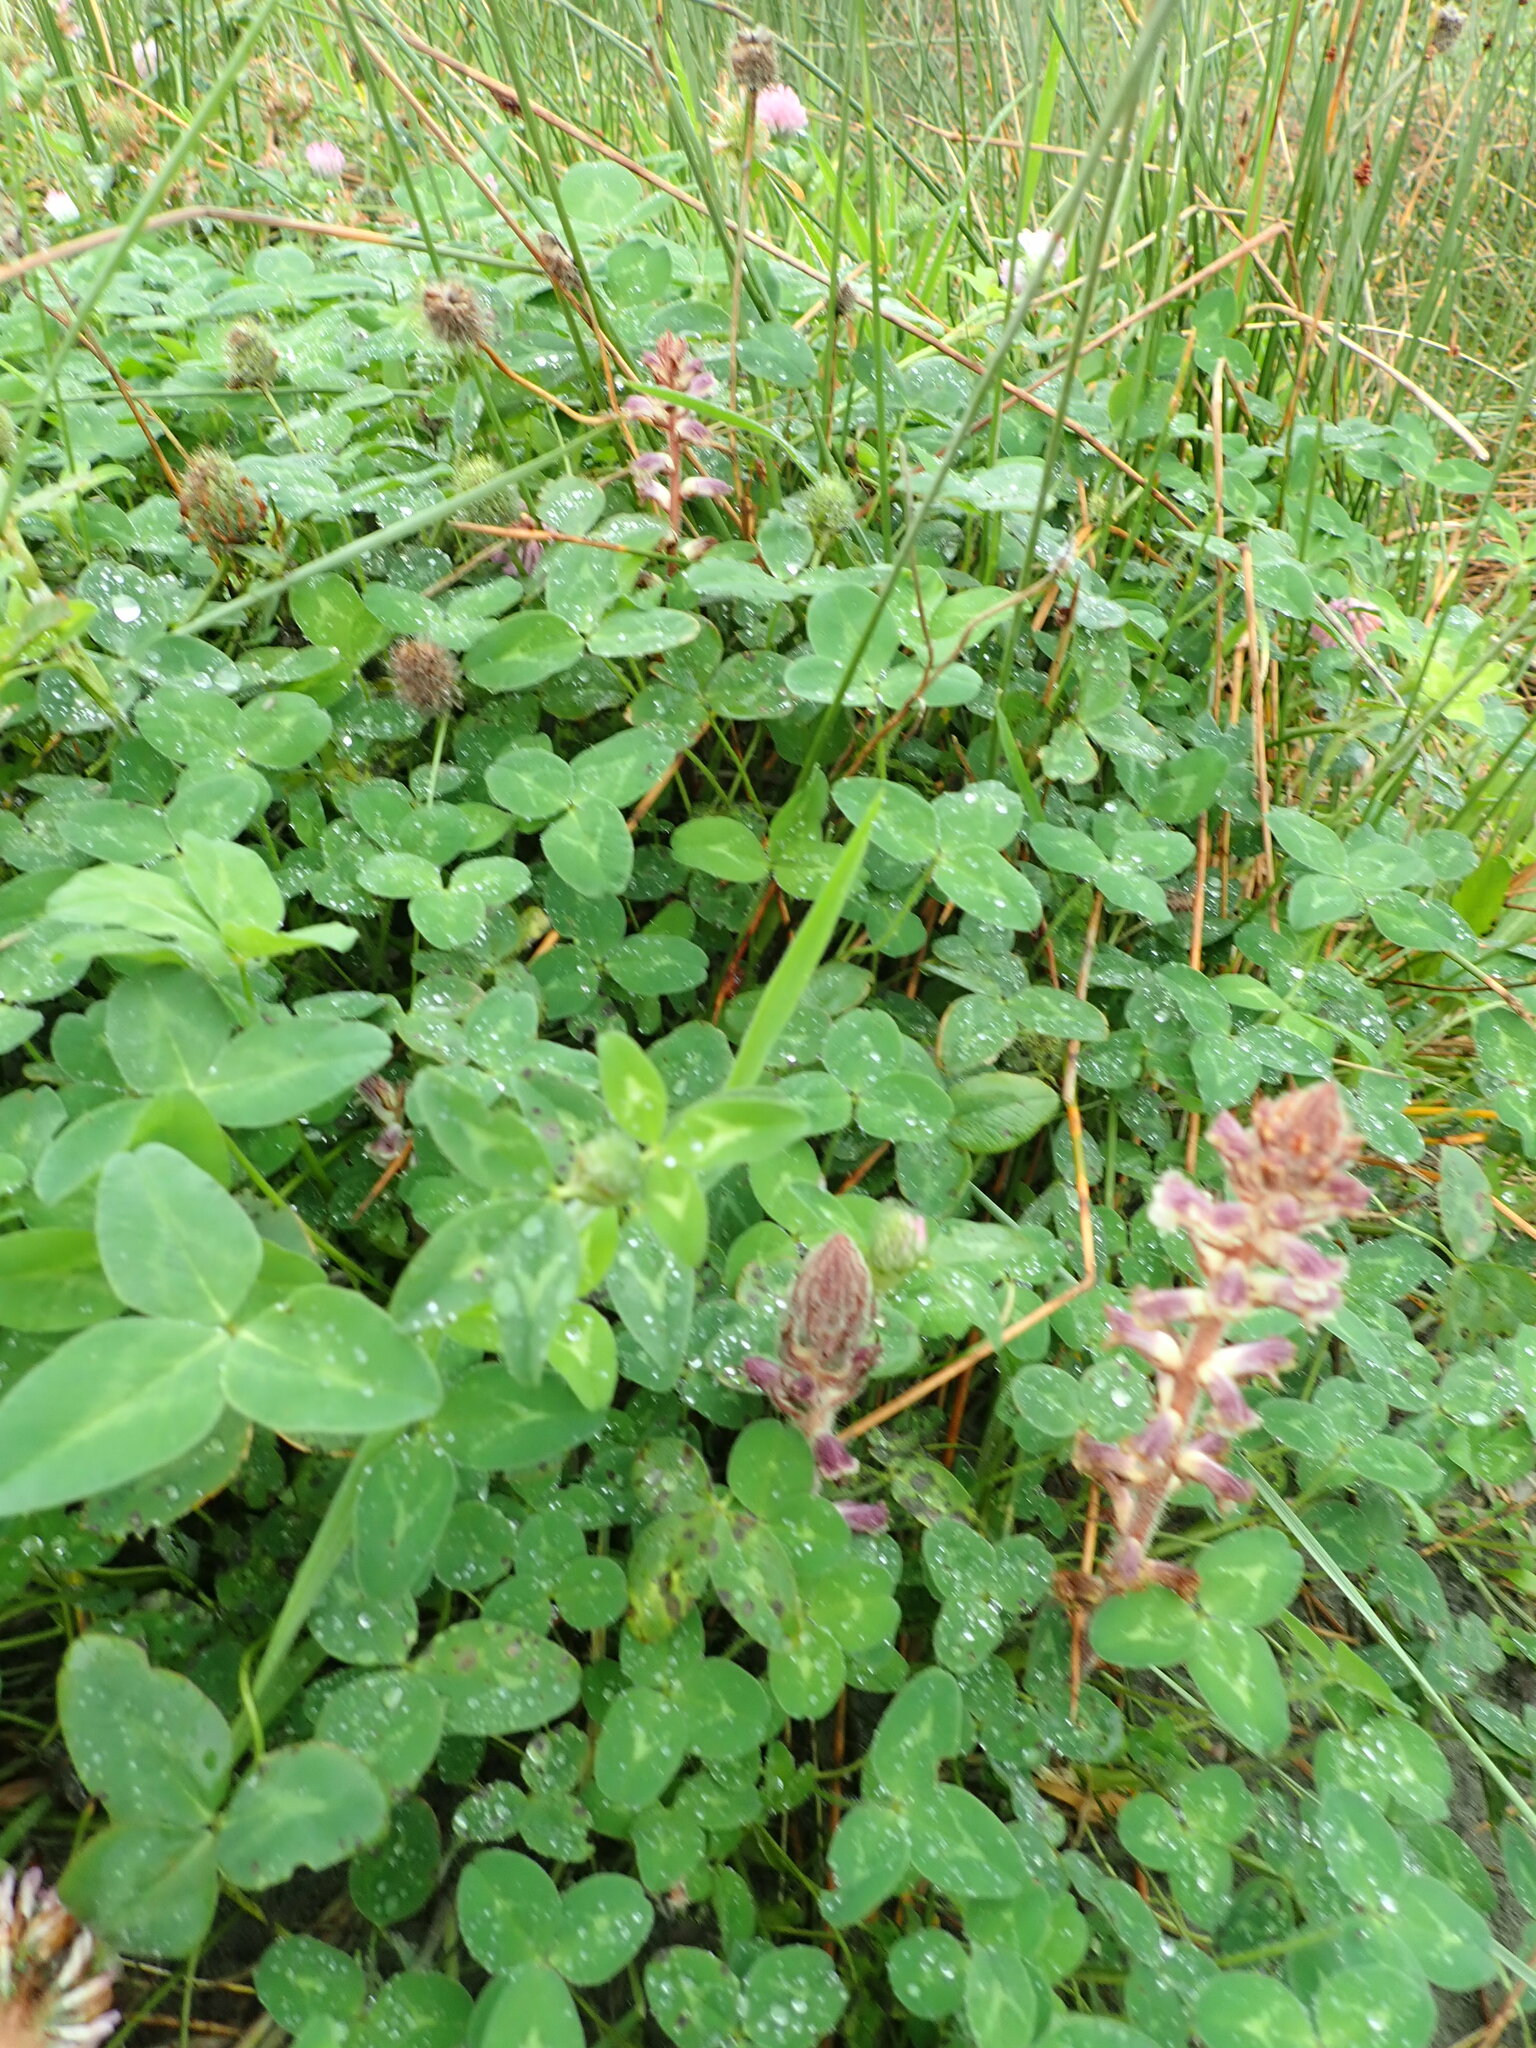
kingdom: Plantae
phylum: Tracheophyta
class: Magnoliopsida
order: Lamiales
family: Orobanchaceae
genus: Orobanche
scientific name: Orobanche minor
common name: Common broomrape
